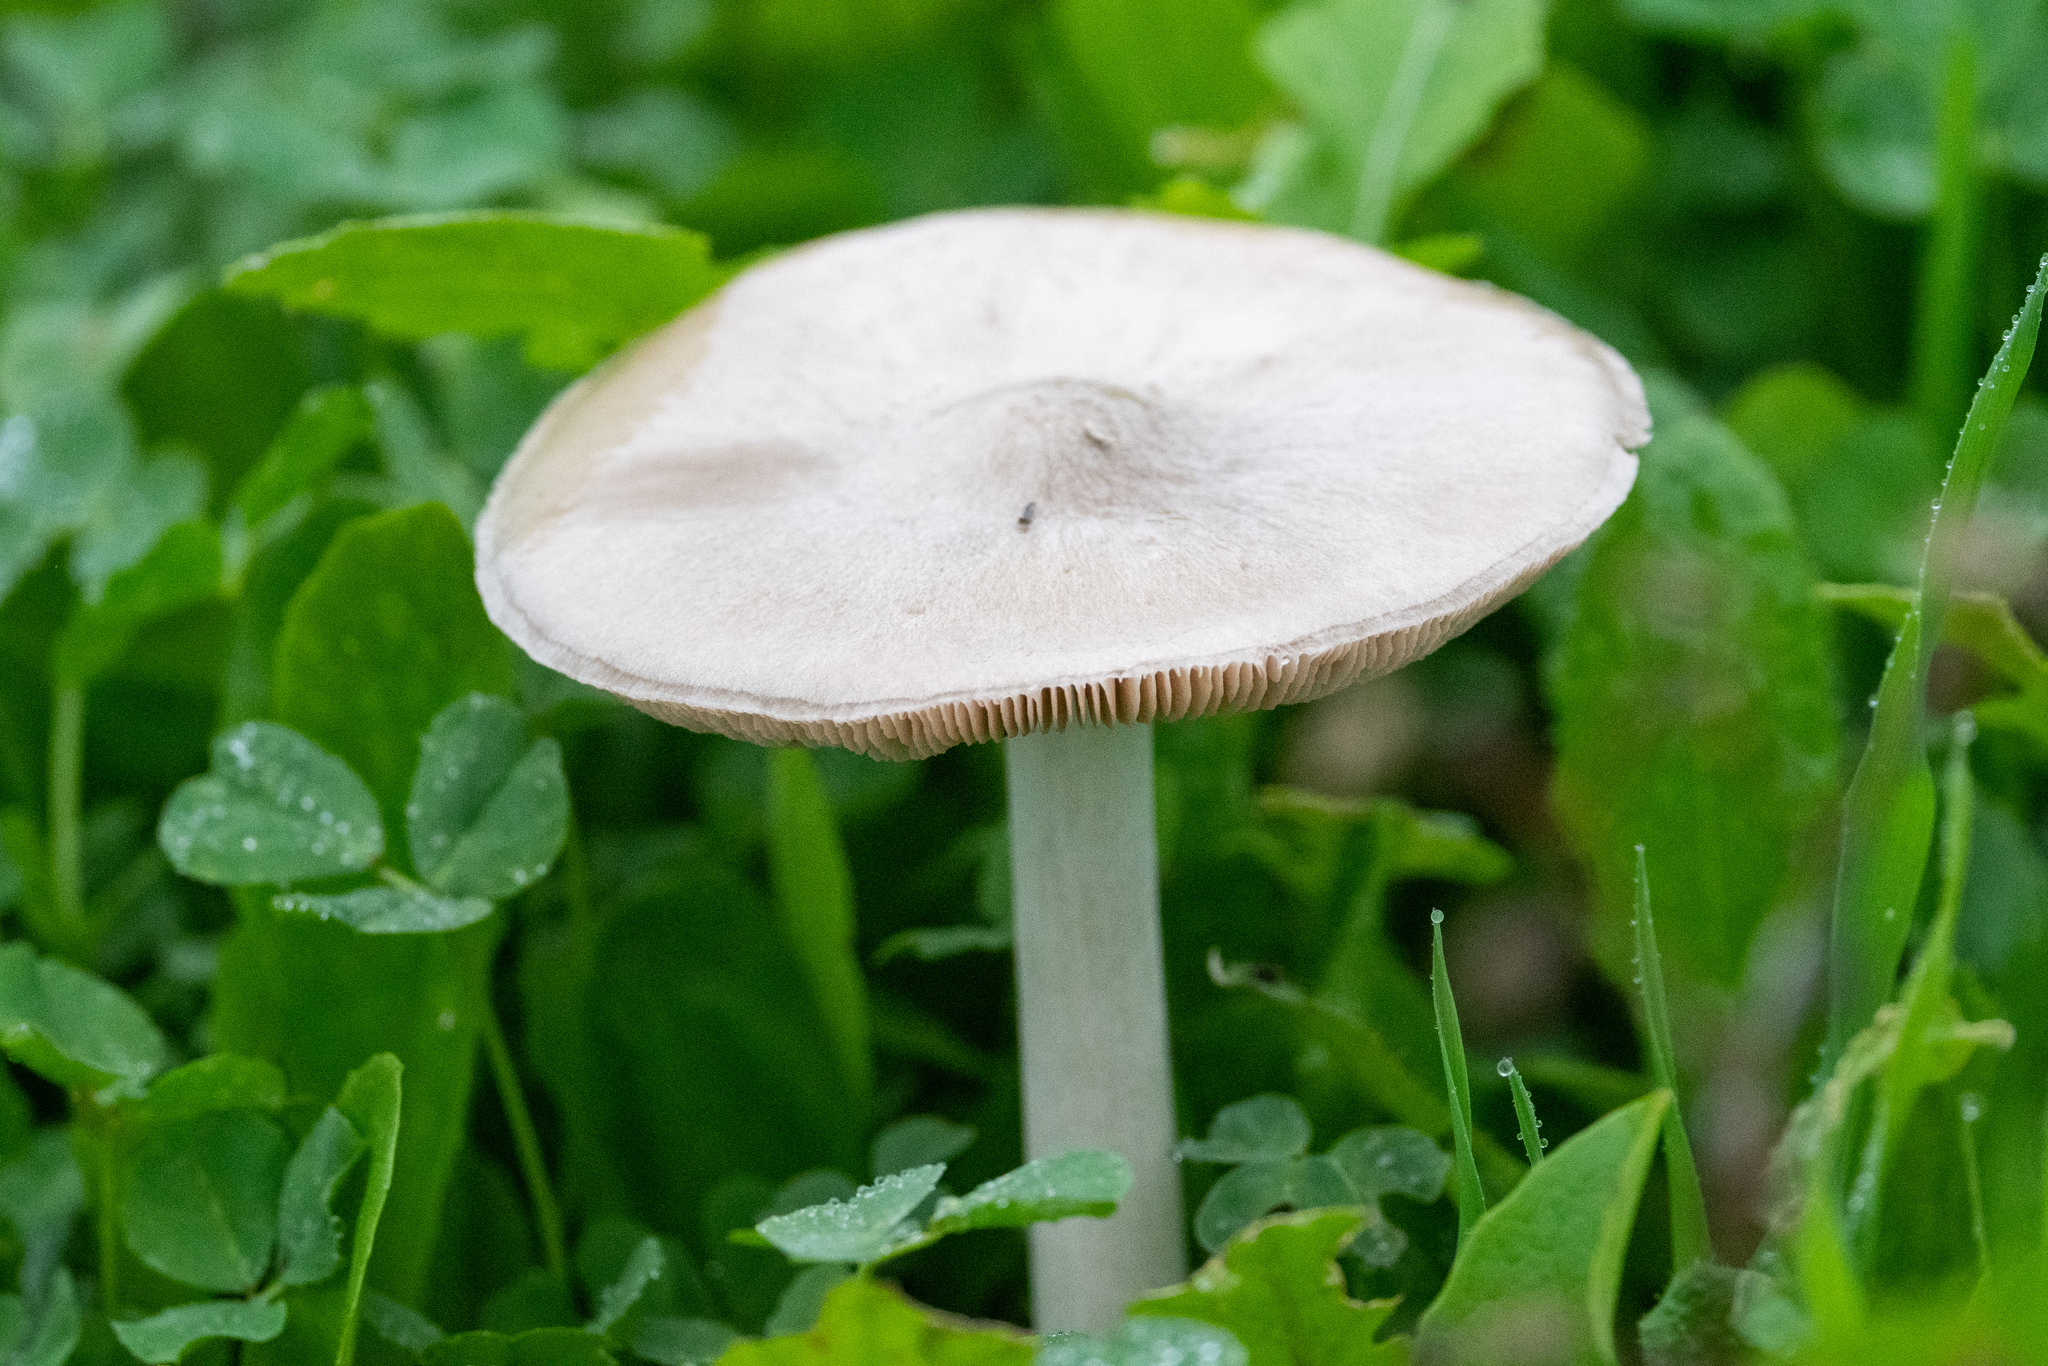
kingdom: Fungi
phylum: Basidiomycota
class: Agaricomycetes
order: Agaricales
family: Pluteaceae
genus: Volvopluteus
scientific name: Volvopluteus gloiocephalus
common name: Stubble rosegill
